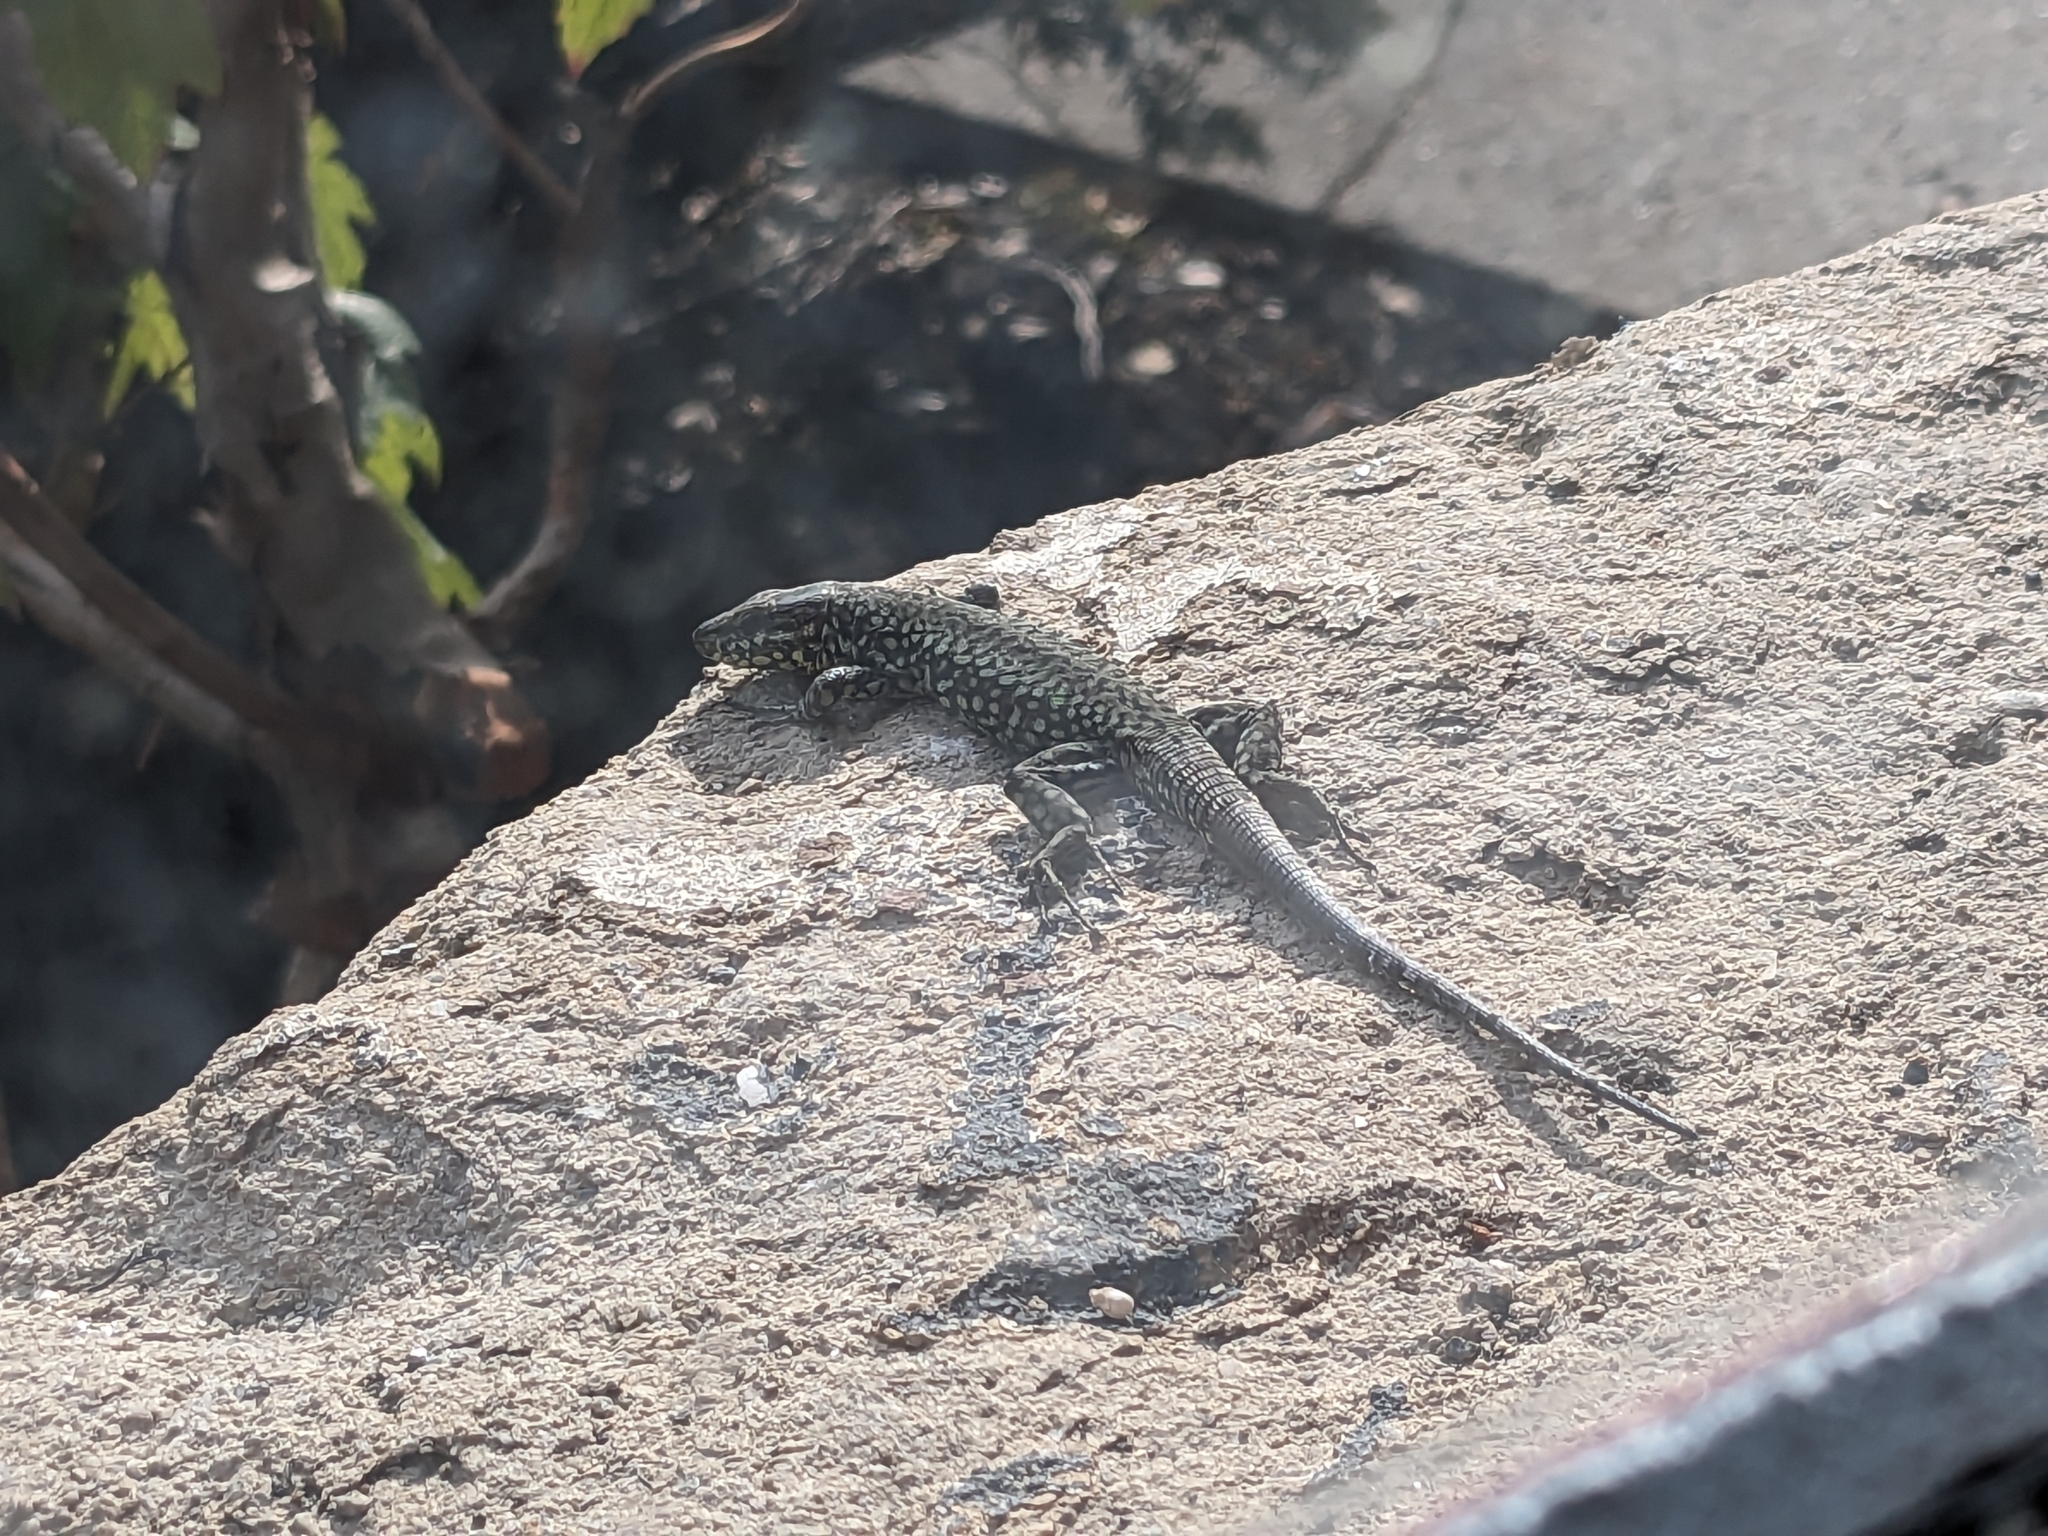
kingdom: Animalia
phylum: Chordata
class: Squamata
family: Lacertidae
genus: Podarcis
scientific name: Podarcis muralis
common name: Common wall lizard
